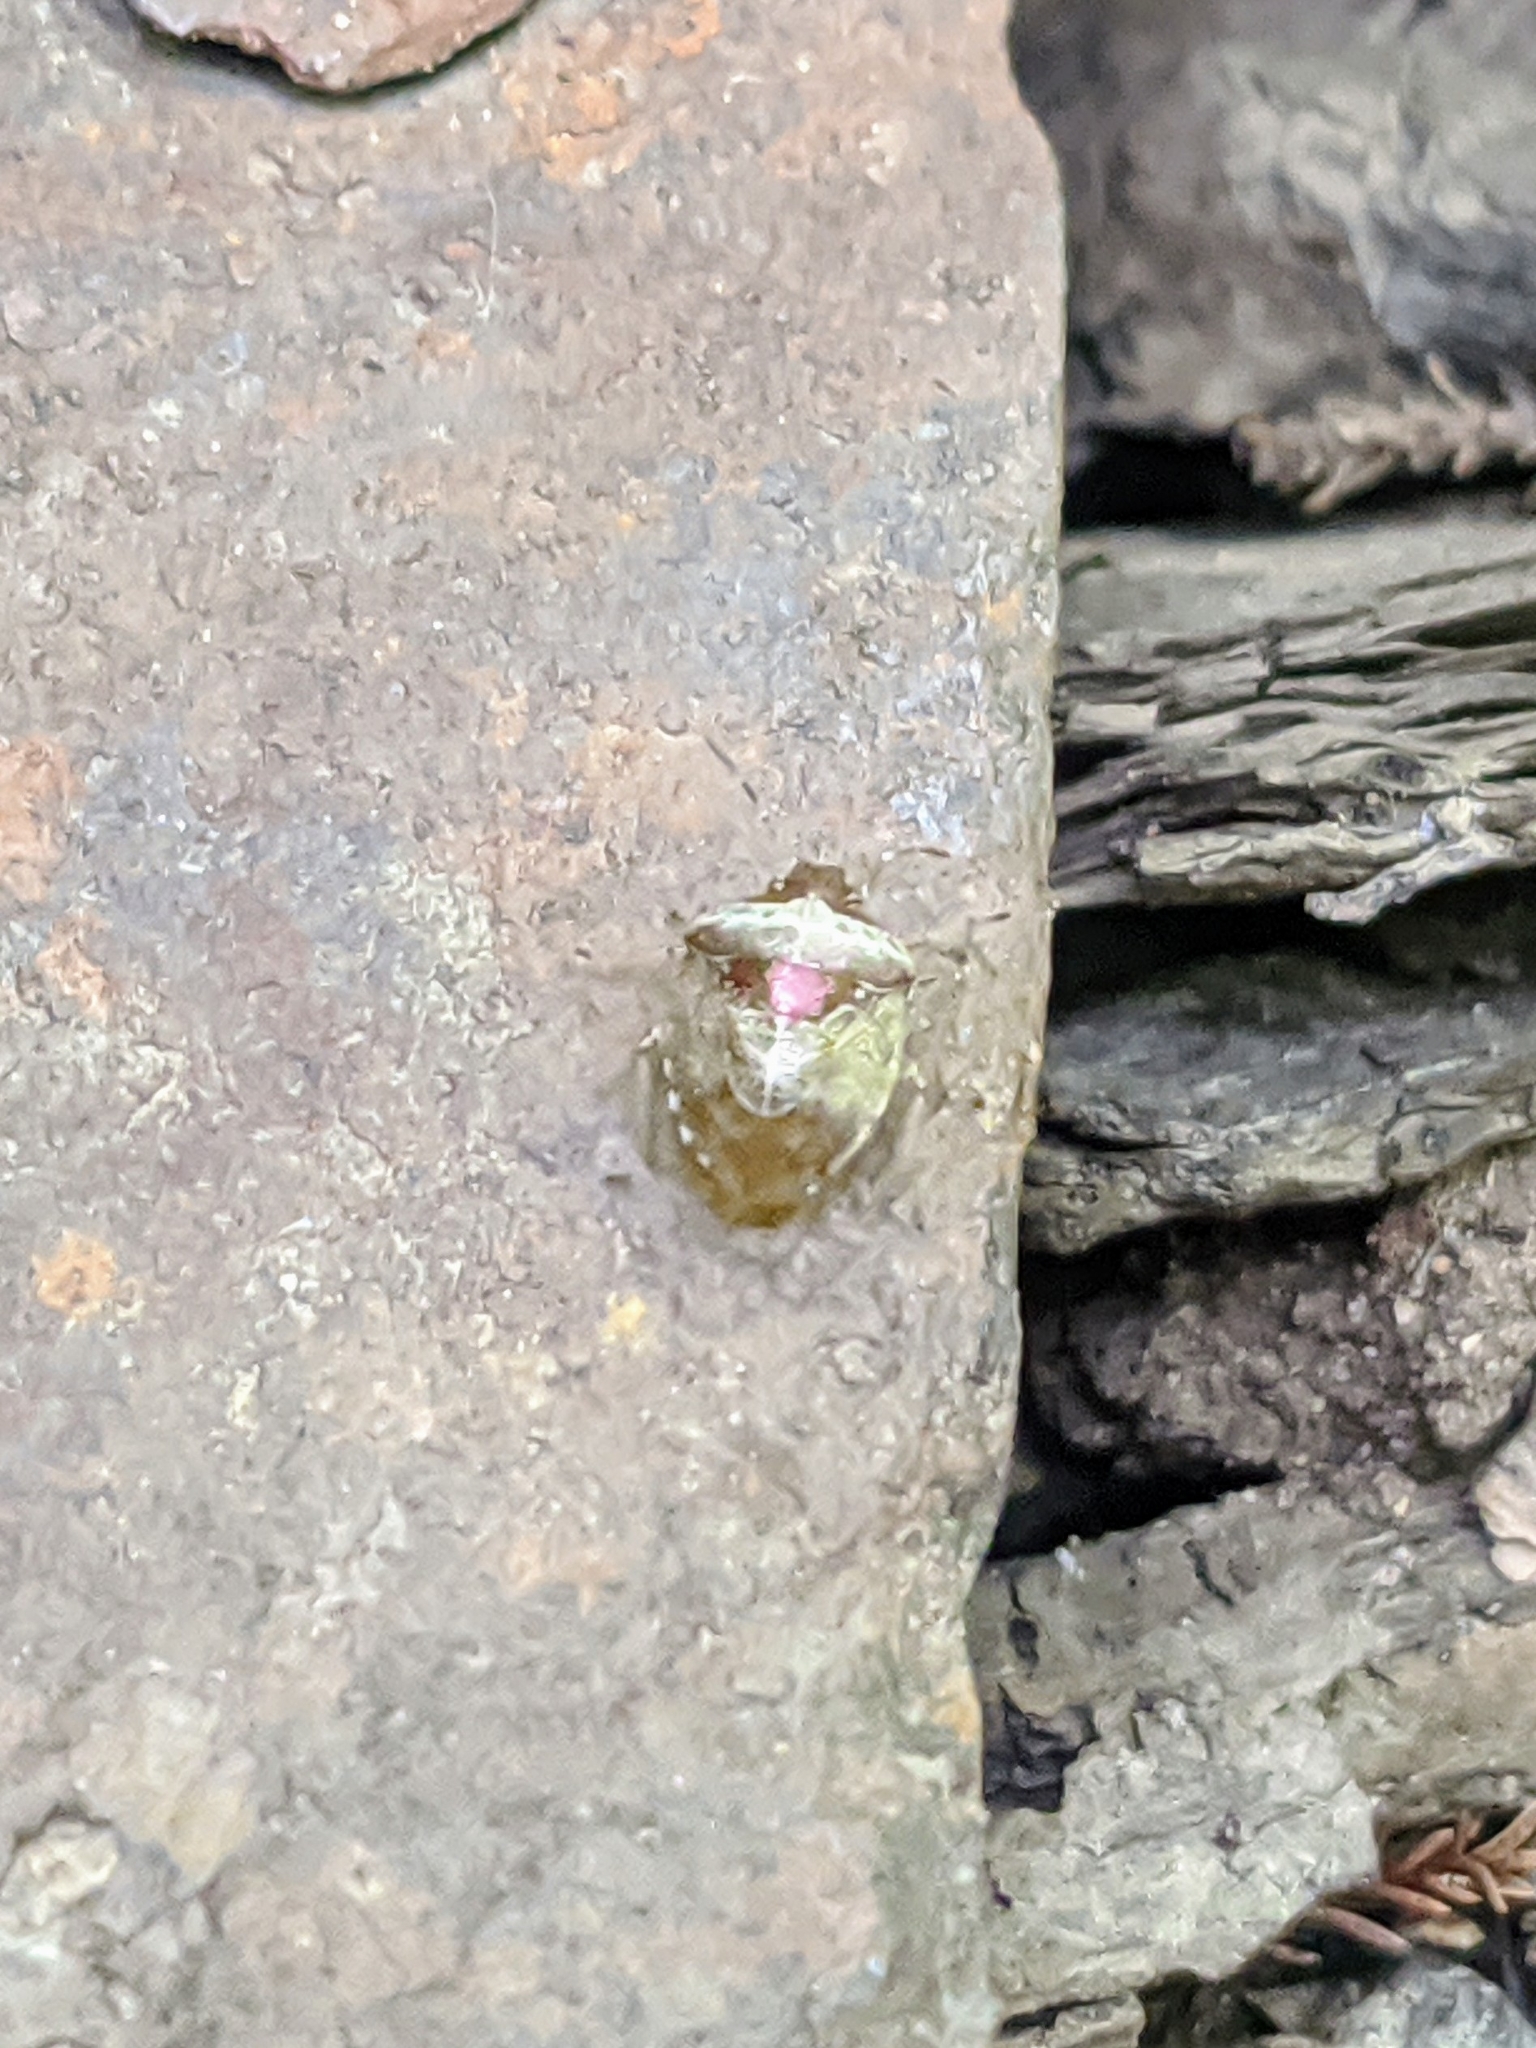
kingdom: Animalia
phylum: Arthropoda
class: Insecta
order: Hemiptera
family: Pentatomidae
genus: Eysarcoris
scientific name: Eysarcoris venustissimus
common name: Woundwort shieldbug
